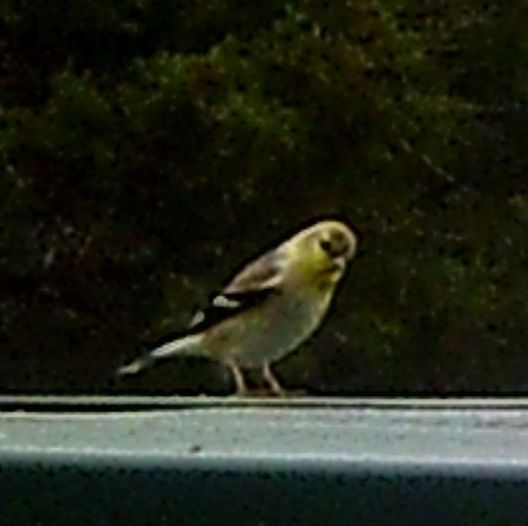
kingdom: Animalia
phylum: Chordata
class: Aves
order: Passeriformes
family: Fringillidae
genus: Spinus
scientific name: Spinus tristis
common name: American goldfinch
